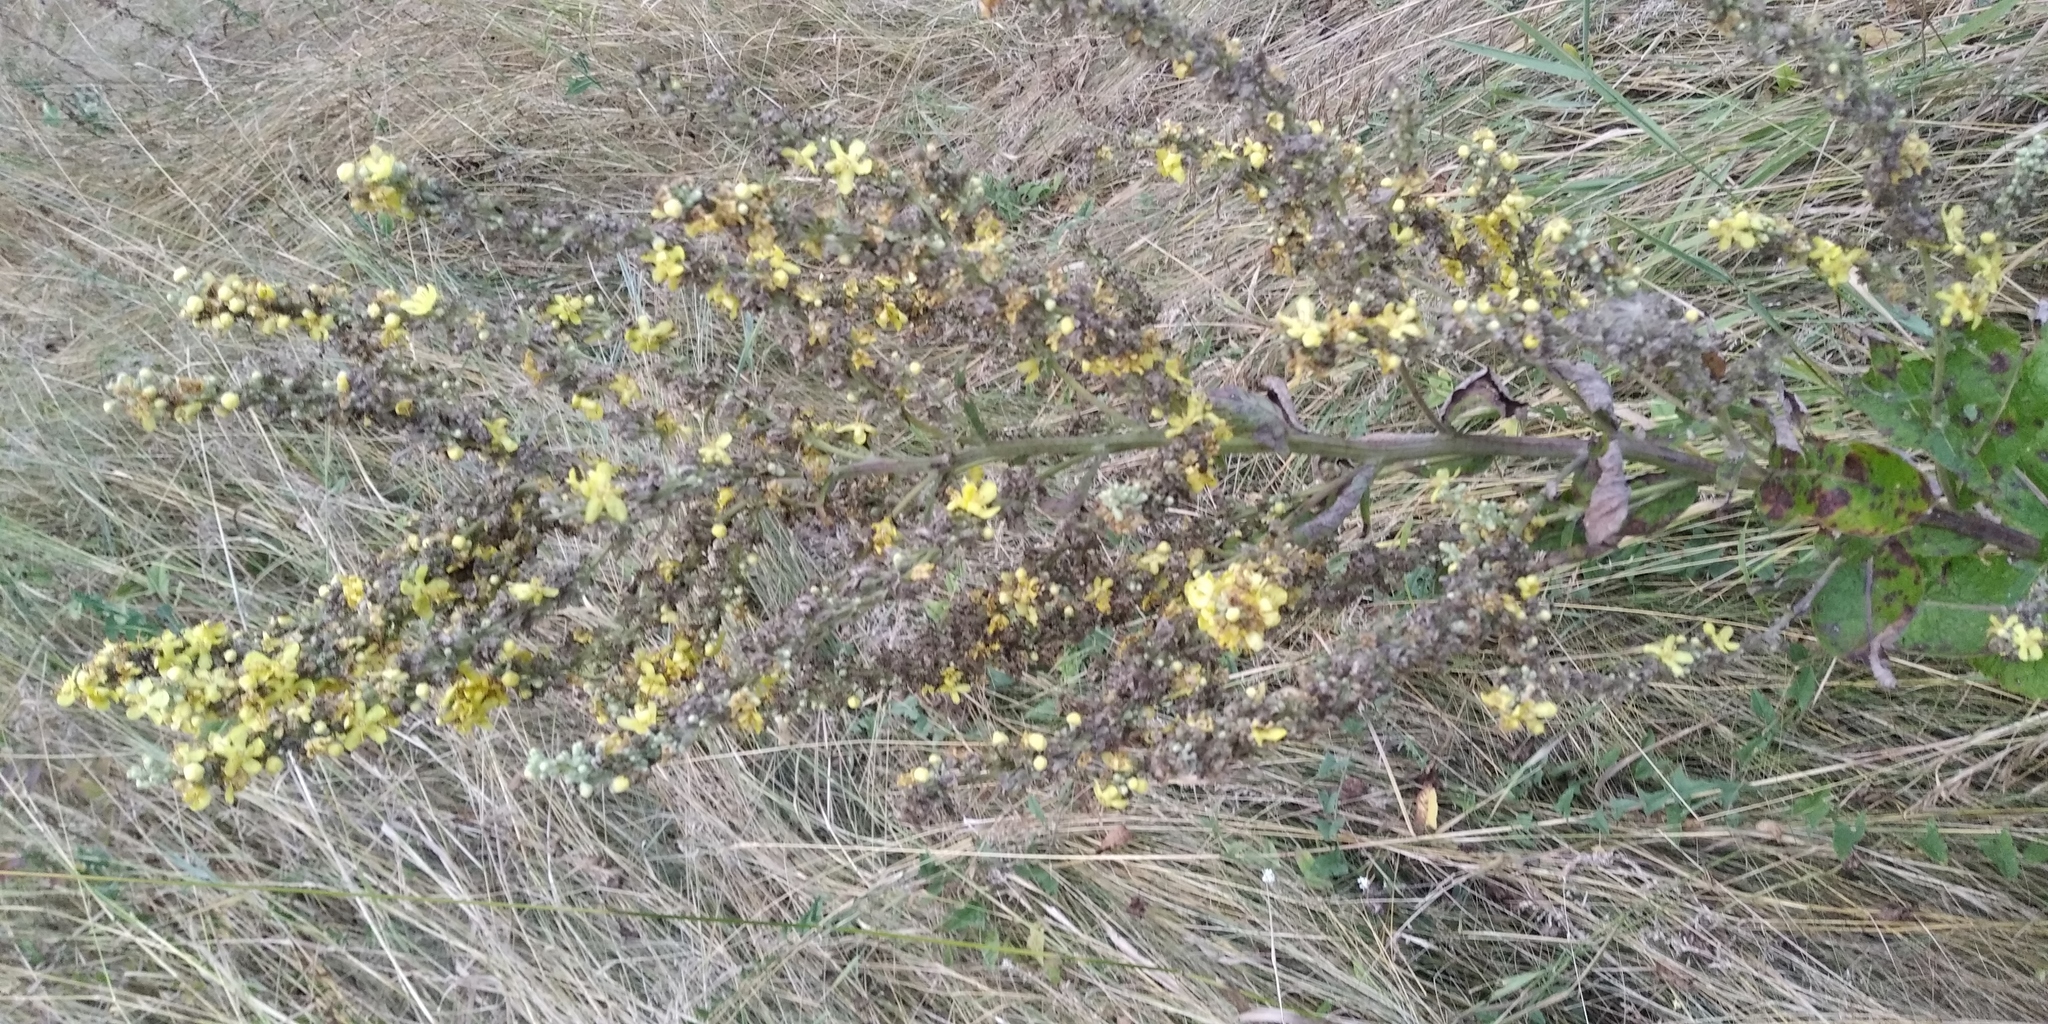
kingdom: Plantae
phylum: Tracheophyta
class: Magnoliopsida
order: Lamiales
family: Scrophulariaceae
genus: Verbascum
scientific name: Verbascum lychnitis
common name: White mullein
